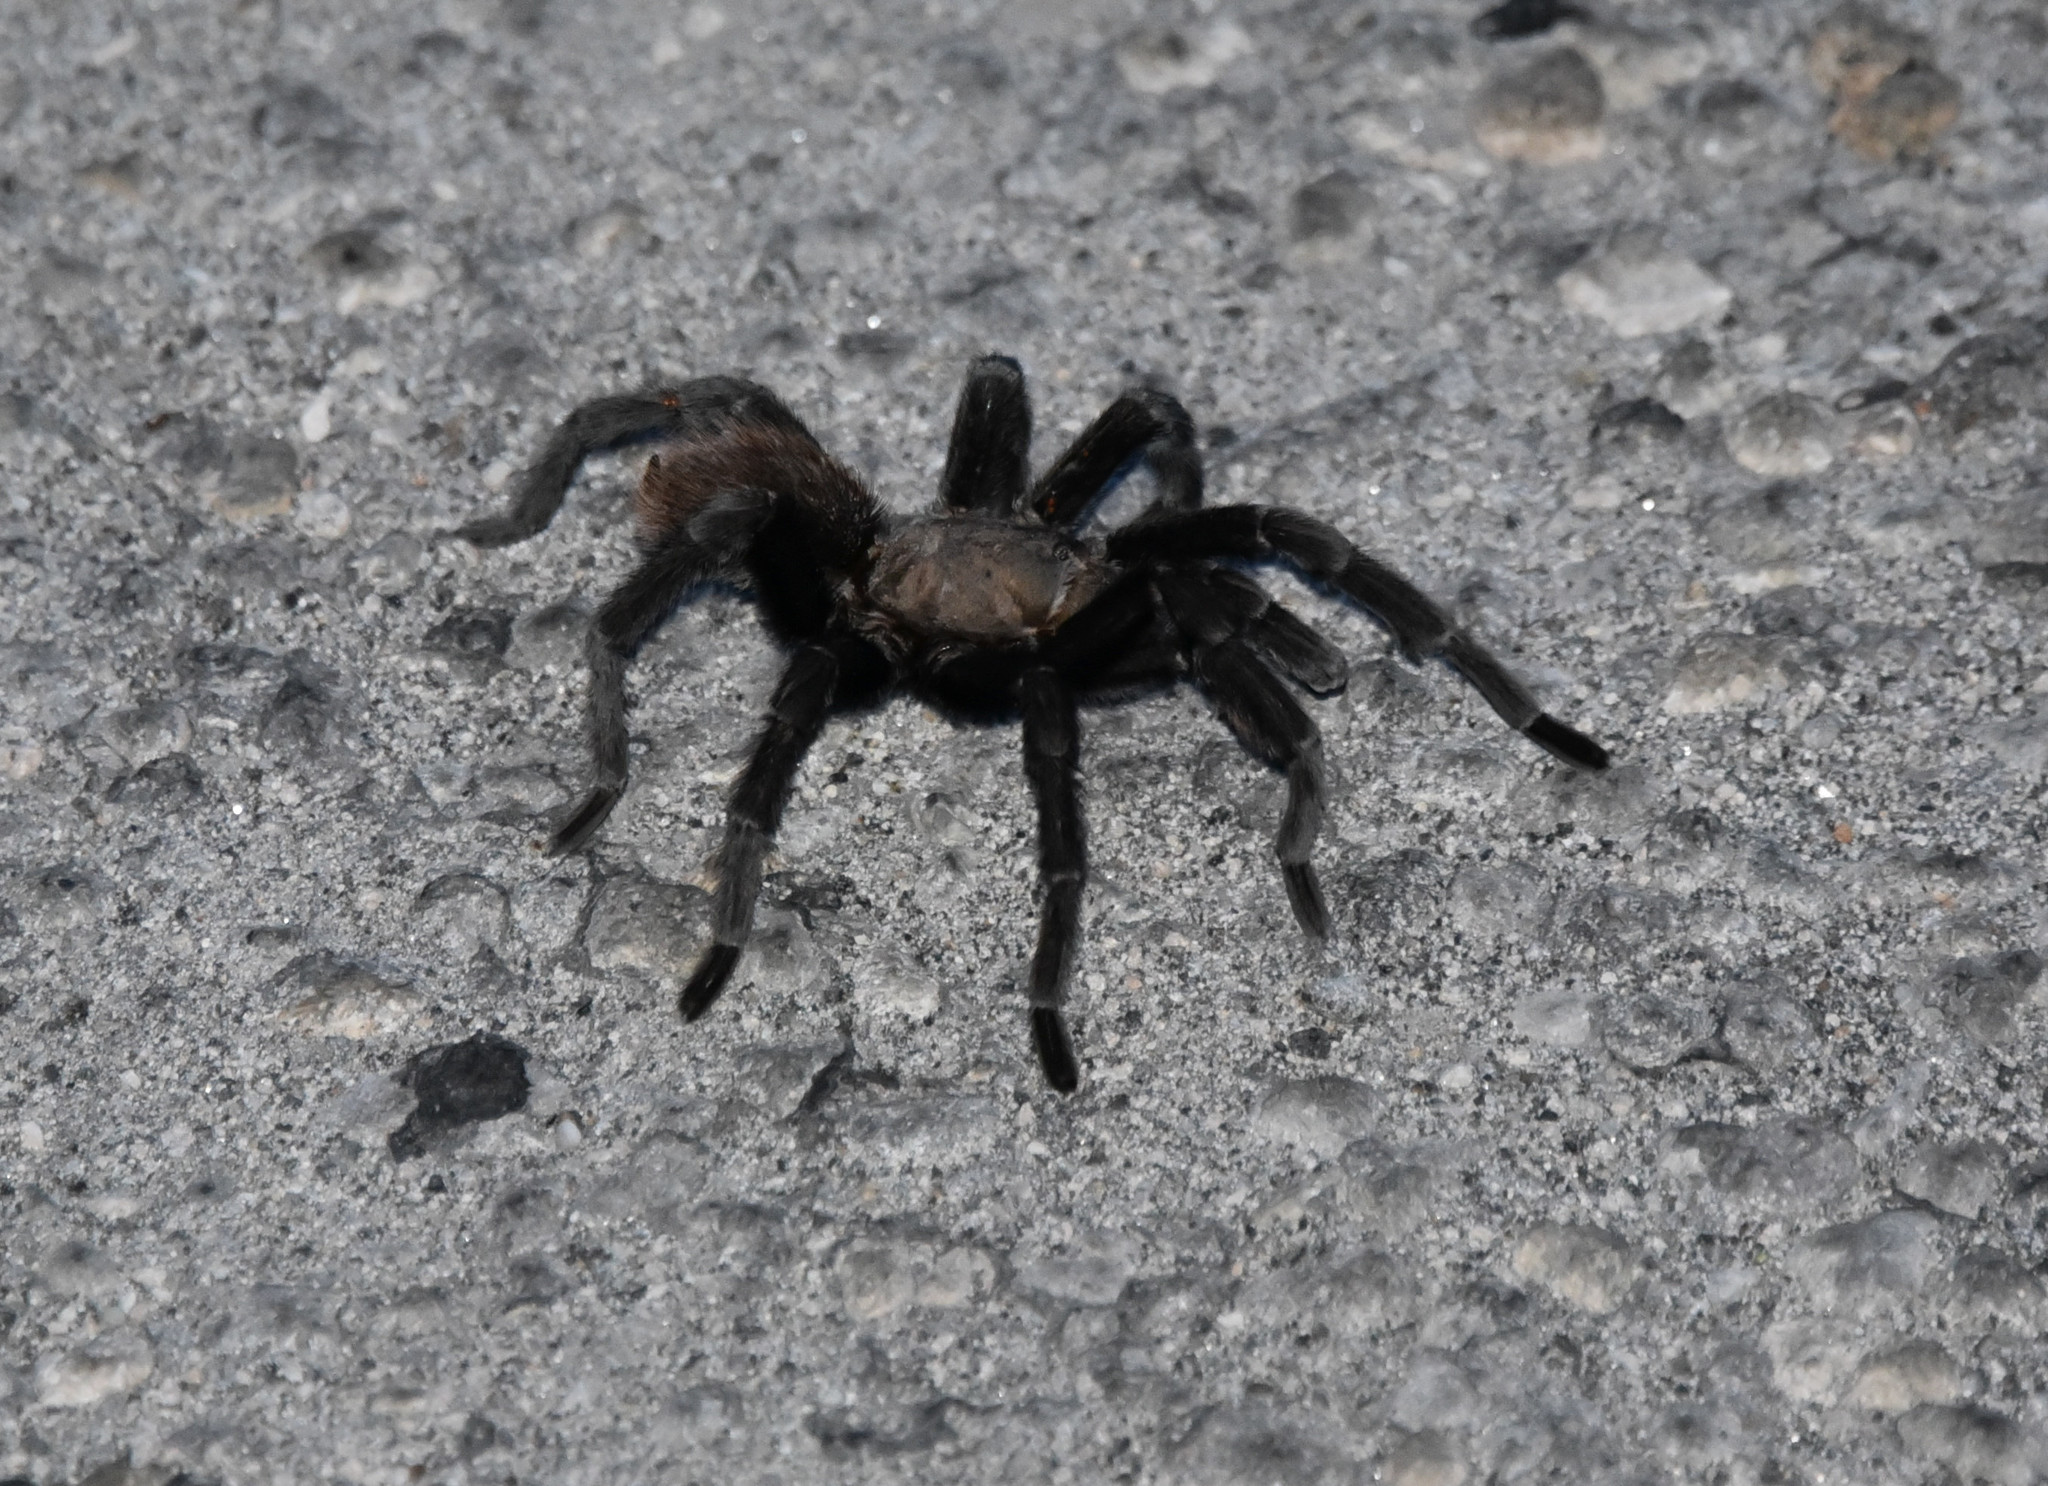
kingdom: Animalia
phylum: Arthropoda
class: Arachnida
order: Araneae
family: Theraphosidae
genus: Aphonopelma
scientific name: Aphonopelma anax
